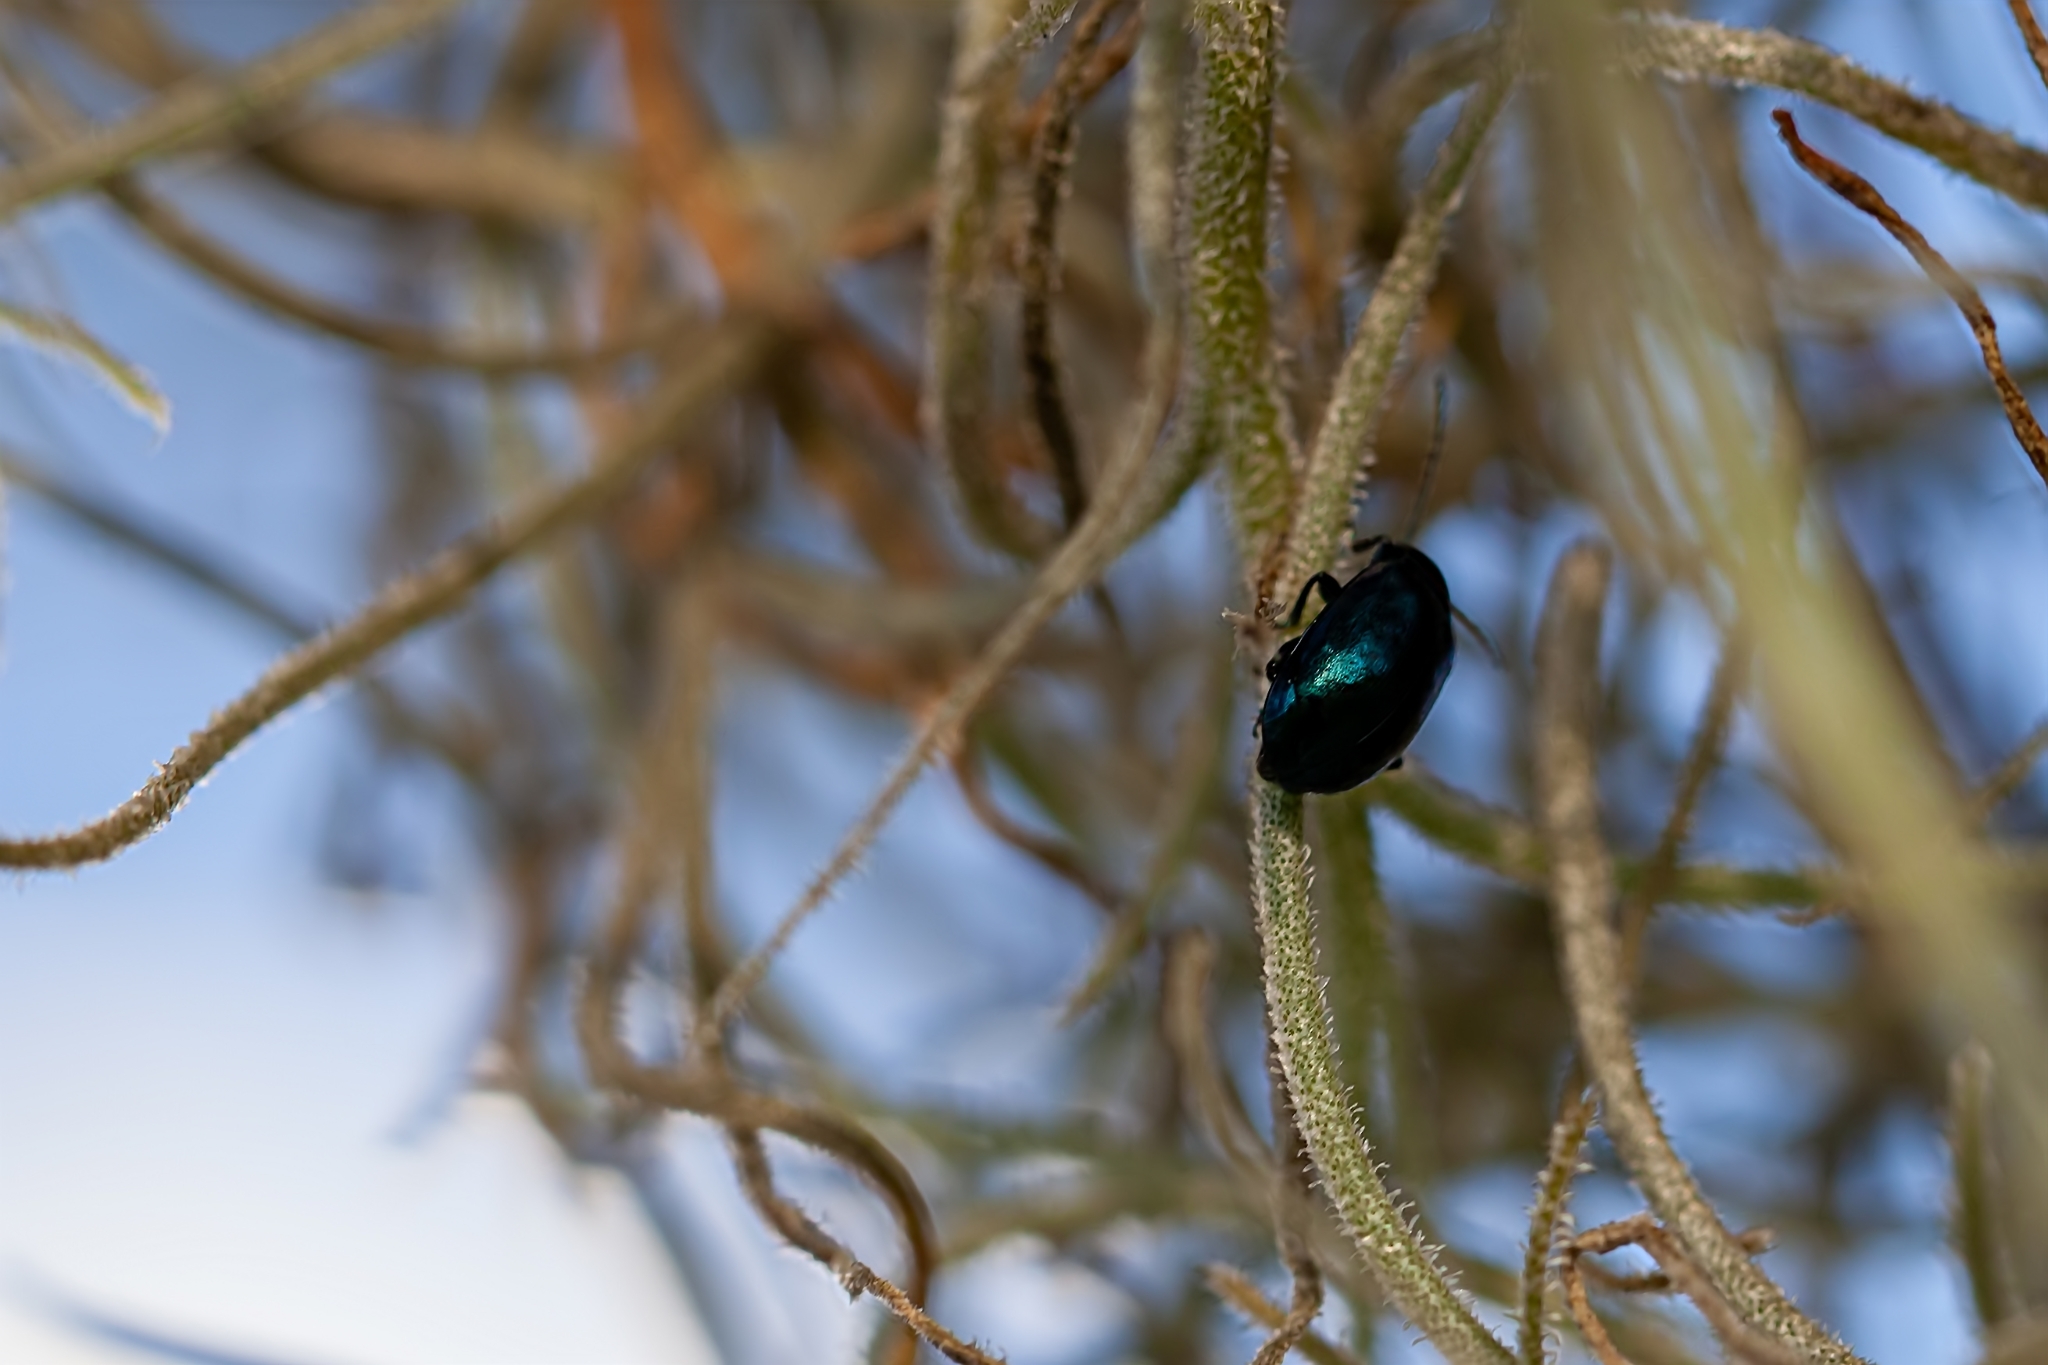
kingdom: Animalia
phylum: Arthropoda
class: Insecta
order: Coleoptera
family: Chrysomelidae
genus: Altica
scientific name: Altica chalybea
